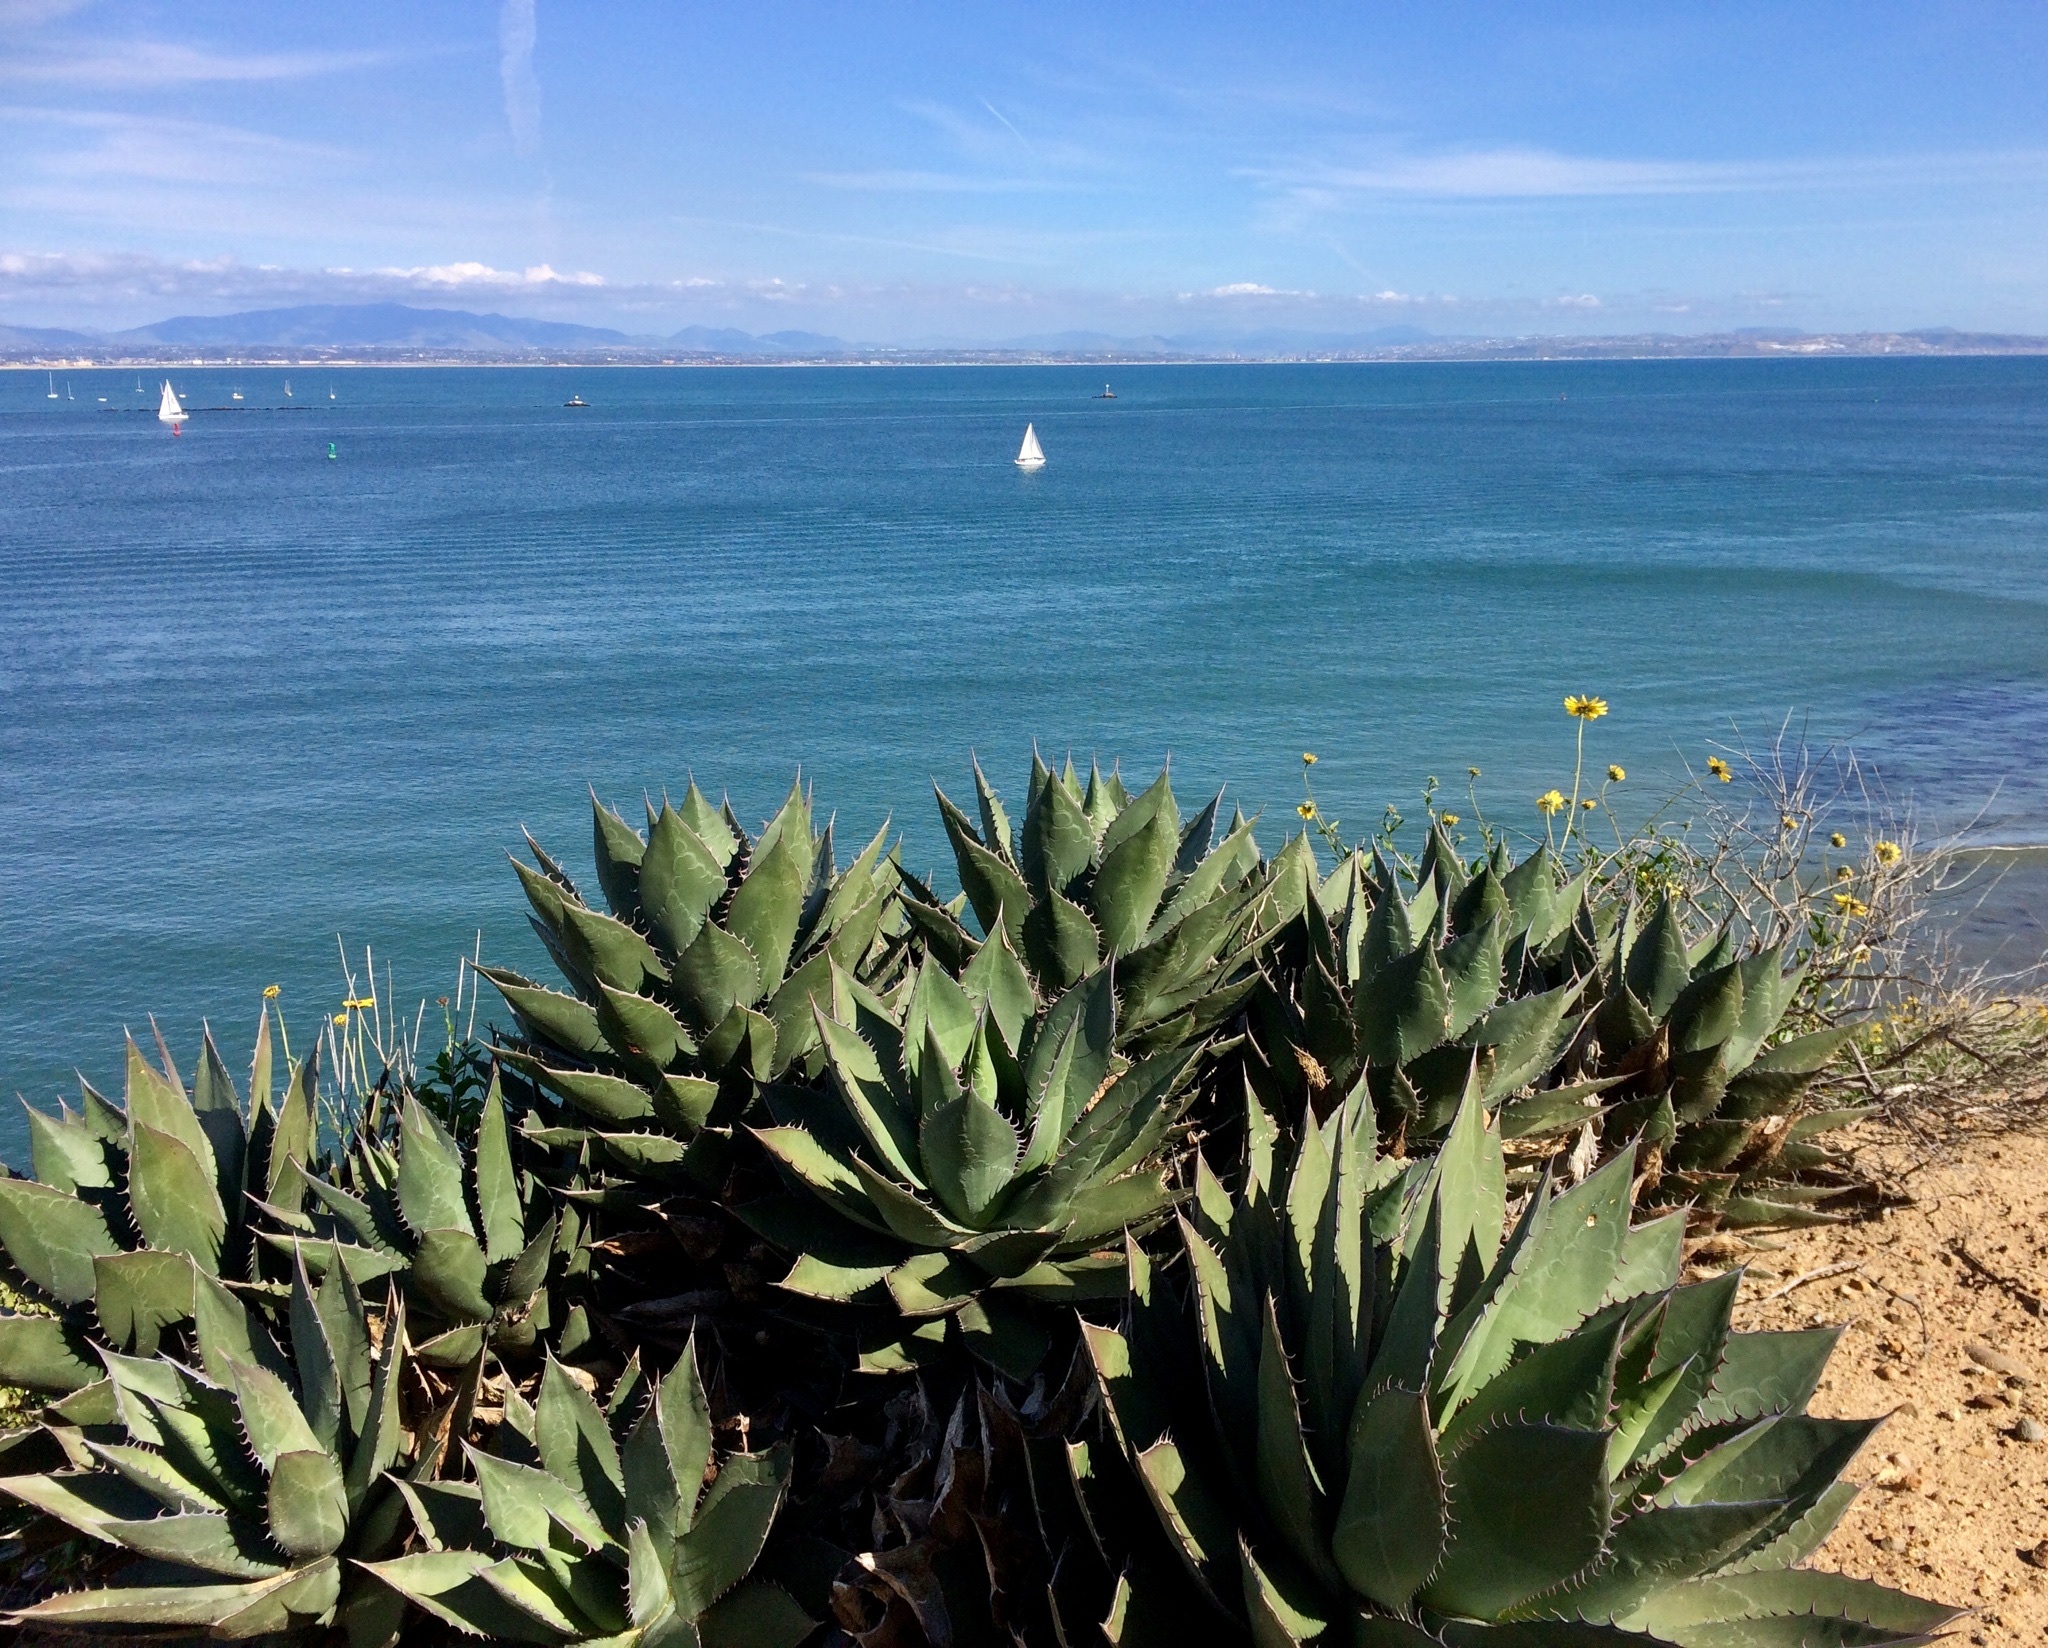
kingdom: Plantae
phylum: Tracheophyta
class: Liliopsida
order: Asparagales
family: Asparagaceae
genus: Agave
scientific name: Agave shawii
